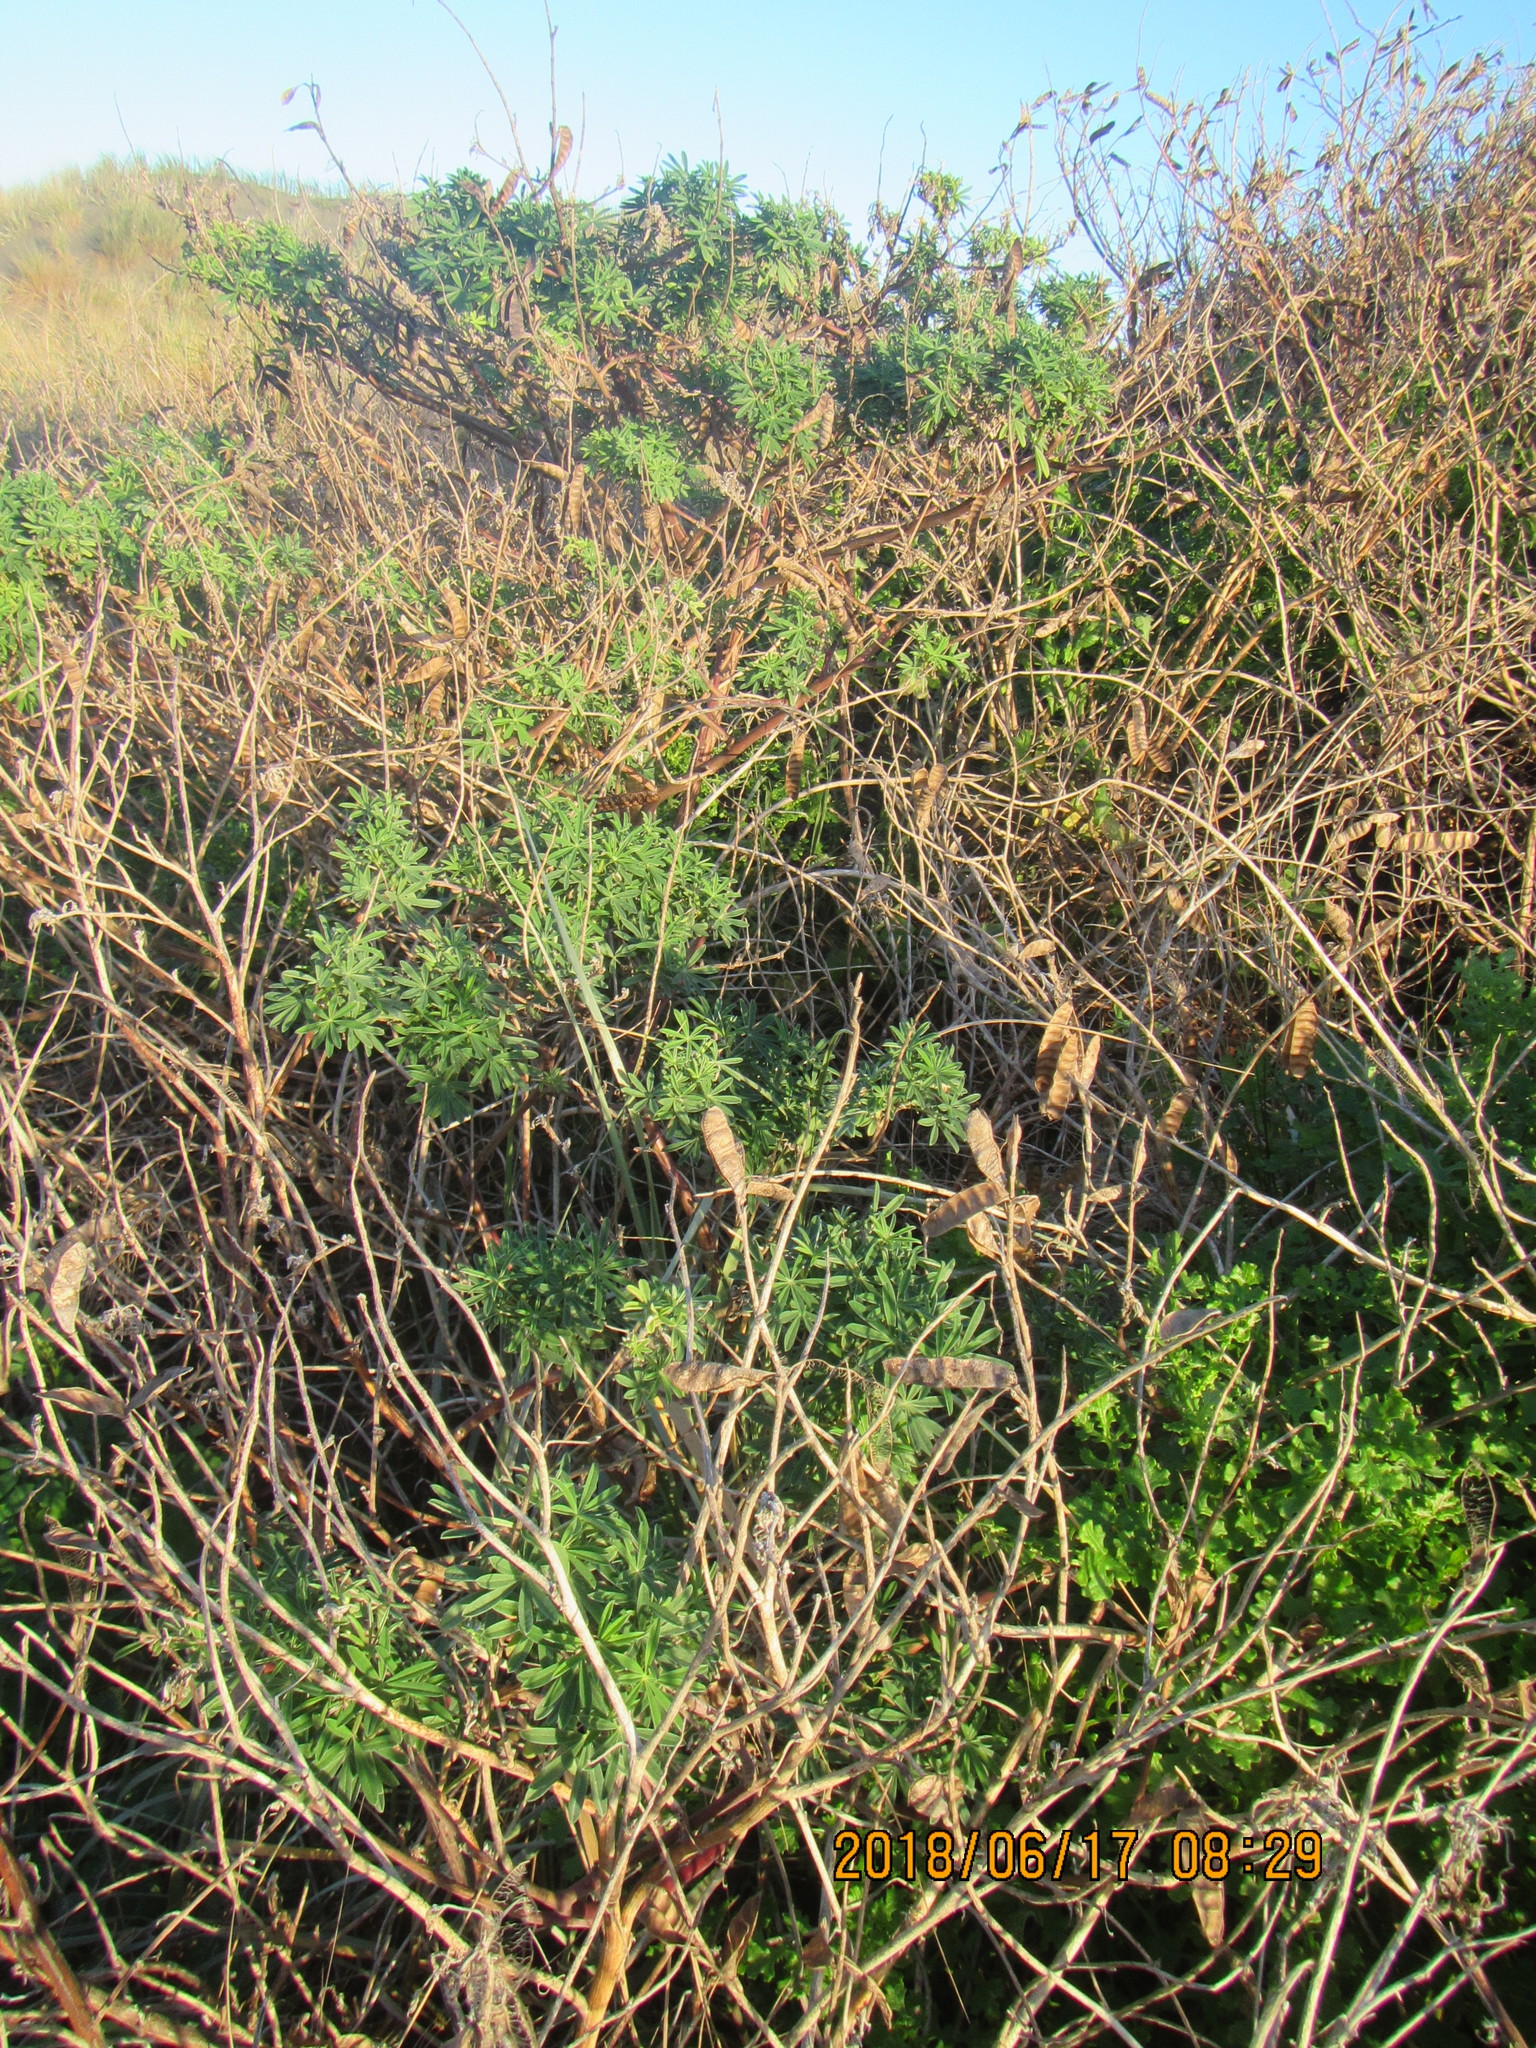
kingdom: Plantae
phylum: Tracheophyta
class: Magnoliopsida
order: Fabales
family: Fabaceae
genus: Lupinus
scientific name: Lupinus arboreus
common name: Yellow bush lupine
